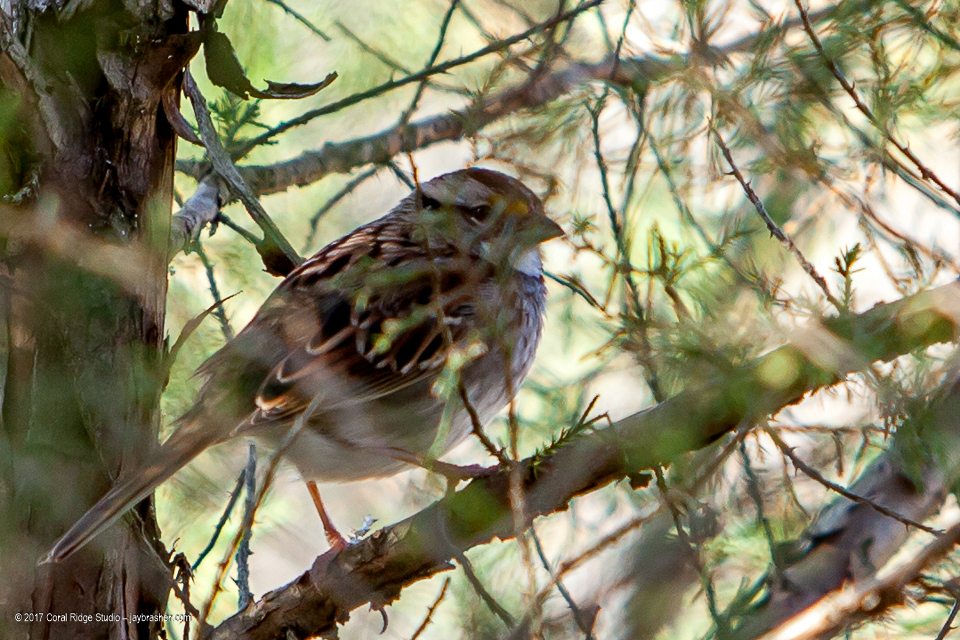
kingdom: Animalia
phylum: Chordata
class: Aves
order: Passeriformes
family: Passerellidae
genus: Zonotrichia
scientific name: Zonotrichia albicollis
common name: White-throated sparrow
